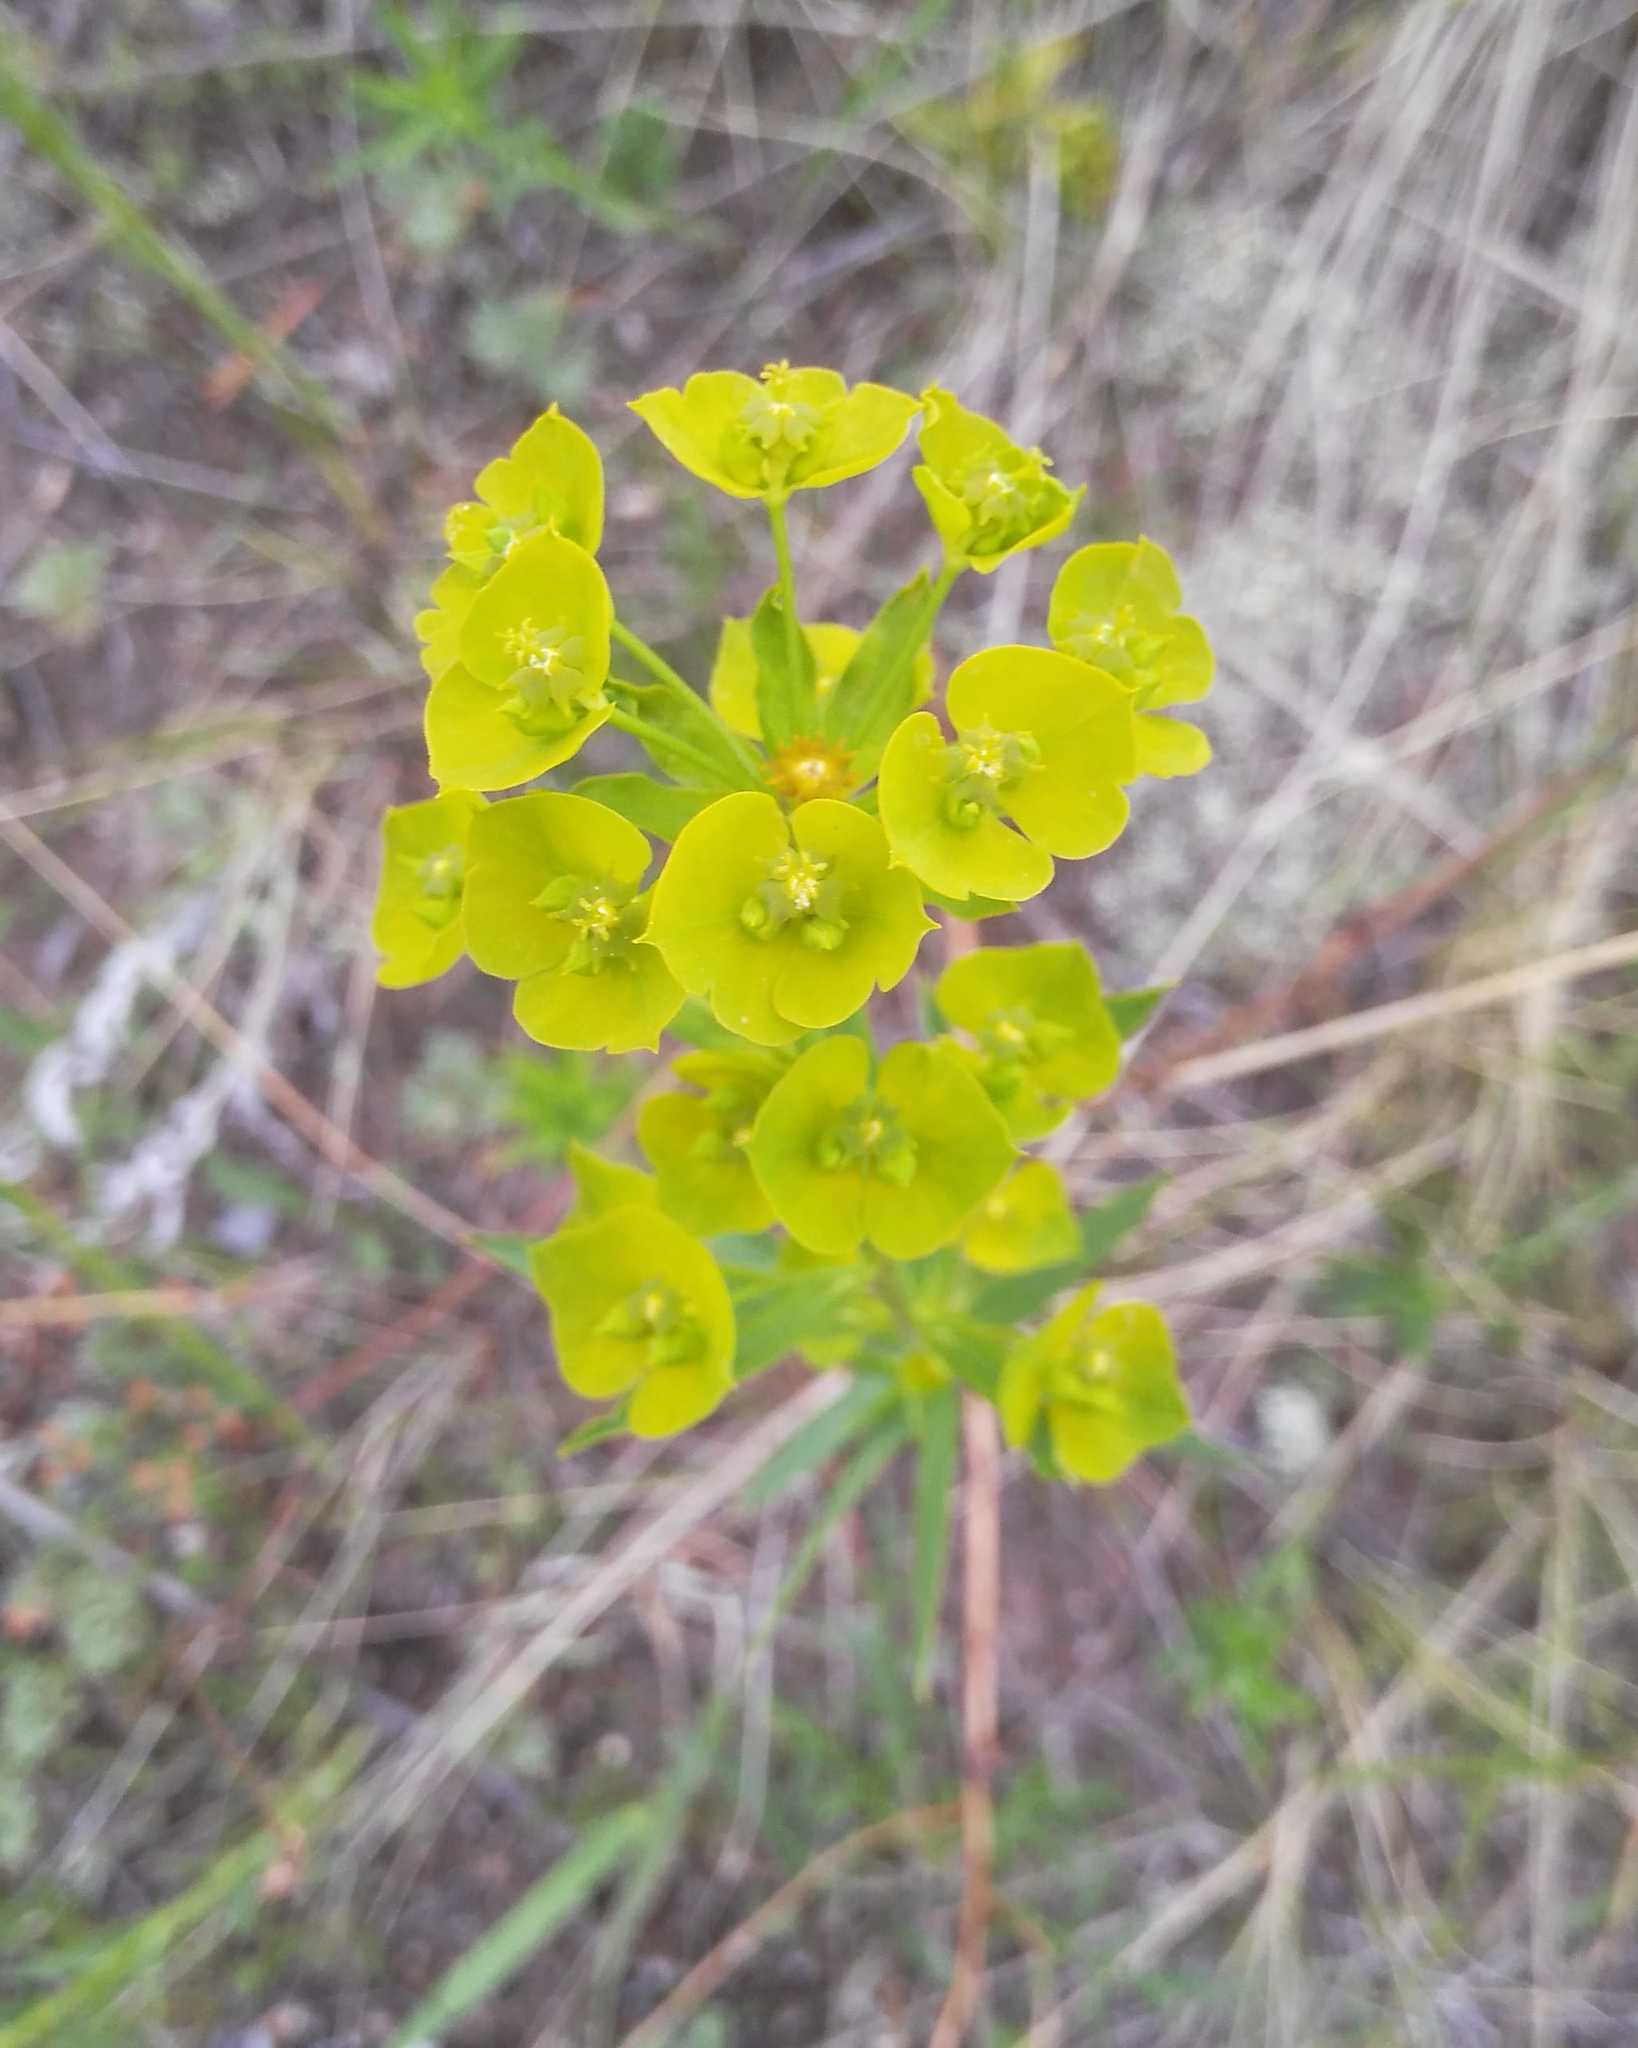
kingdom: Plantae
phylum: Tracheophyta
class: Magnoliopsida
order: Malpighiales
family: Euphorbiaceae
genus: Euphorbia
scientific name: Euphorbia virgata
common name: Leafy spurge
